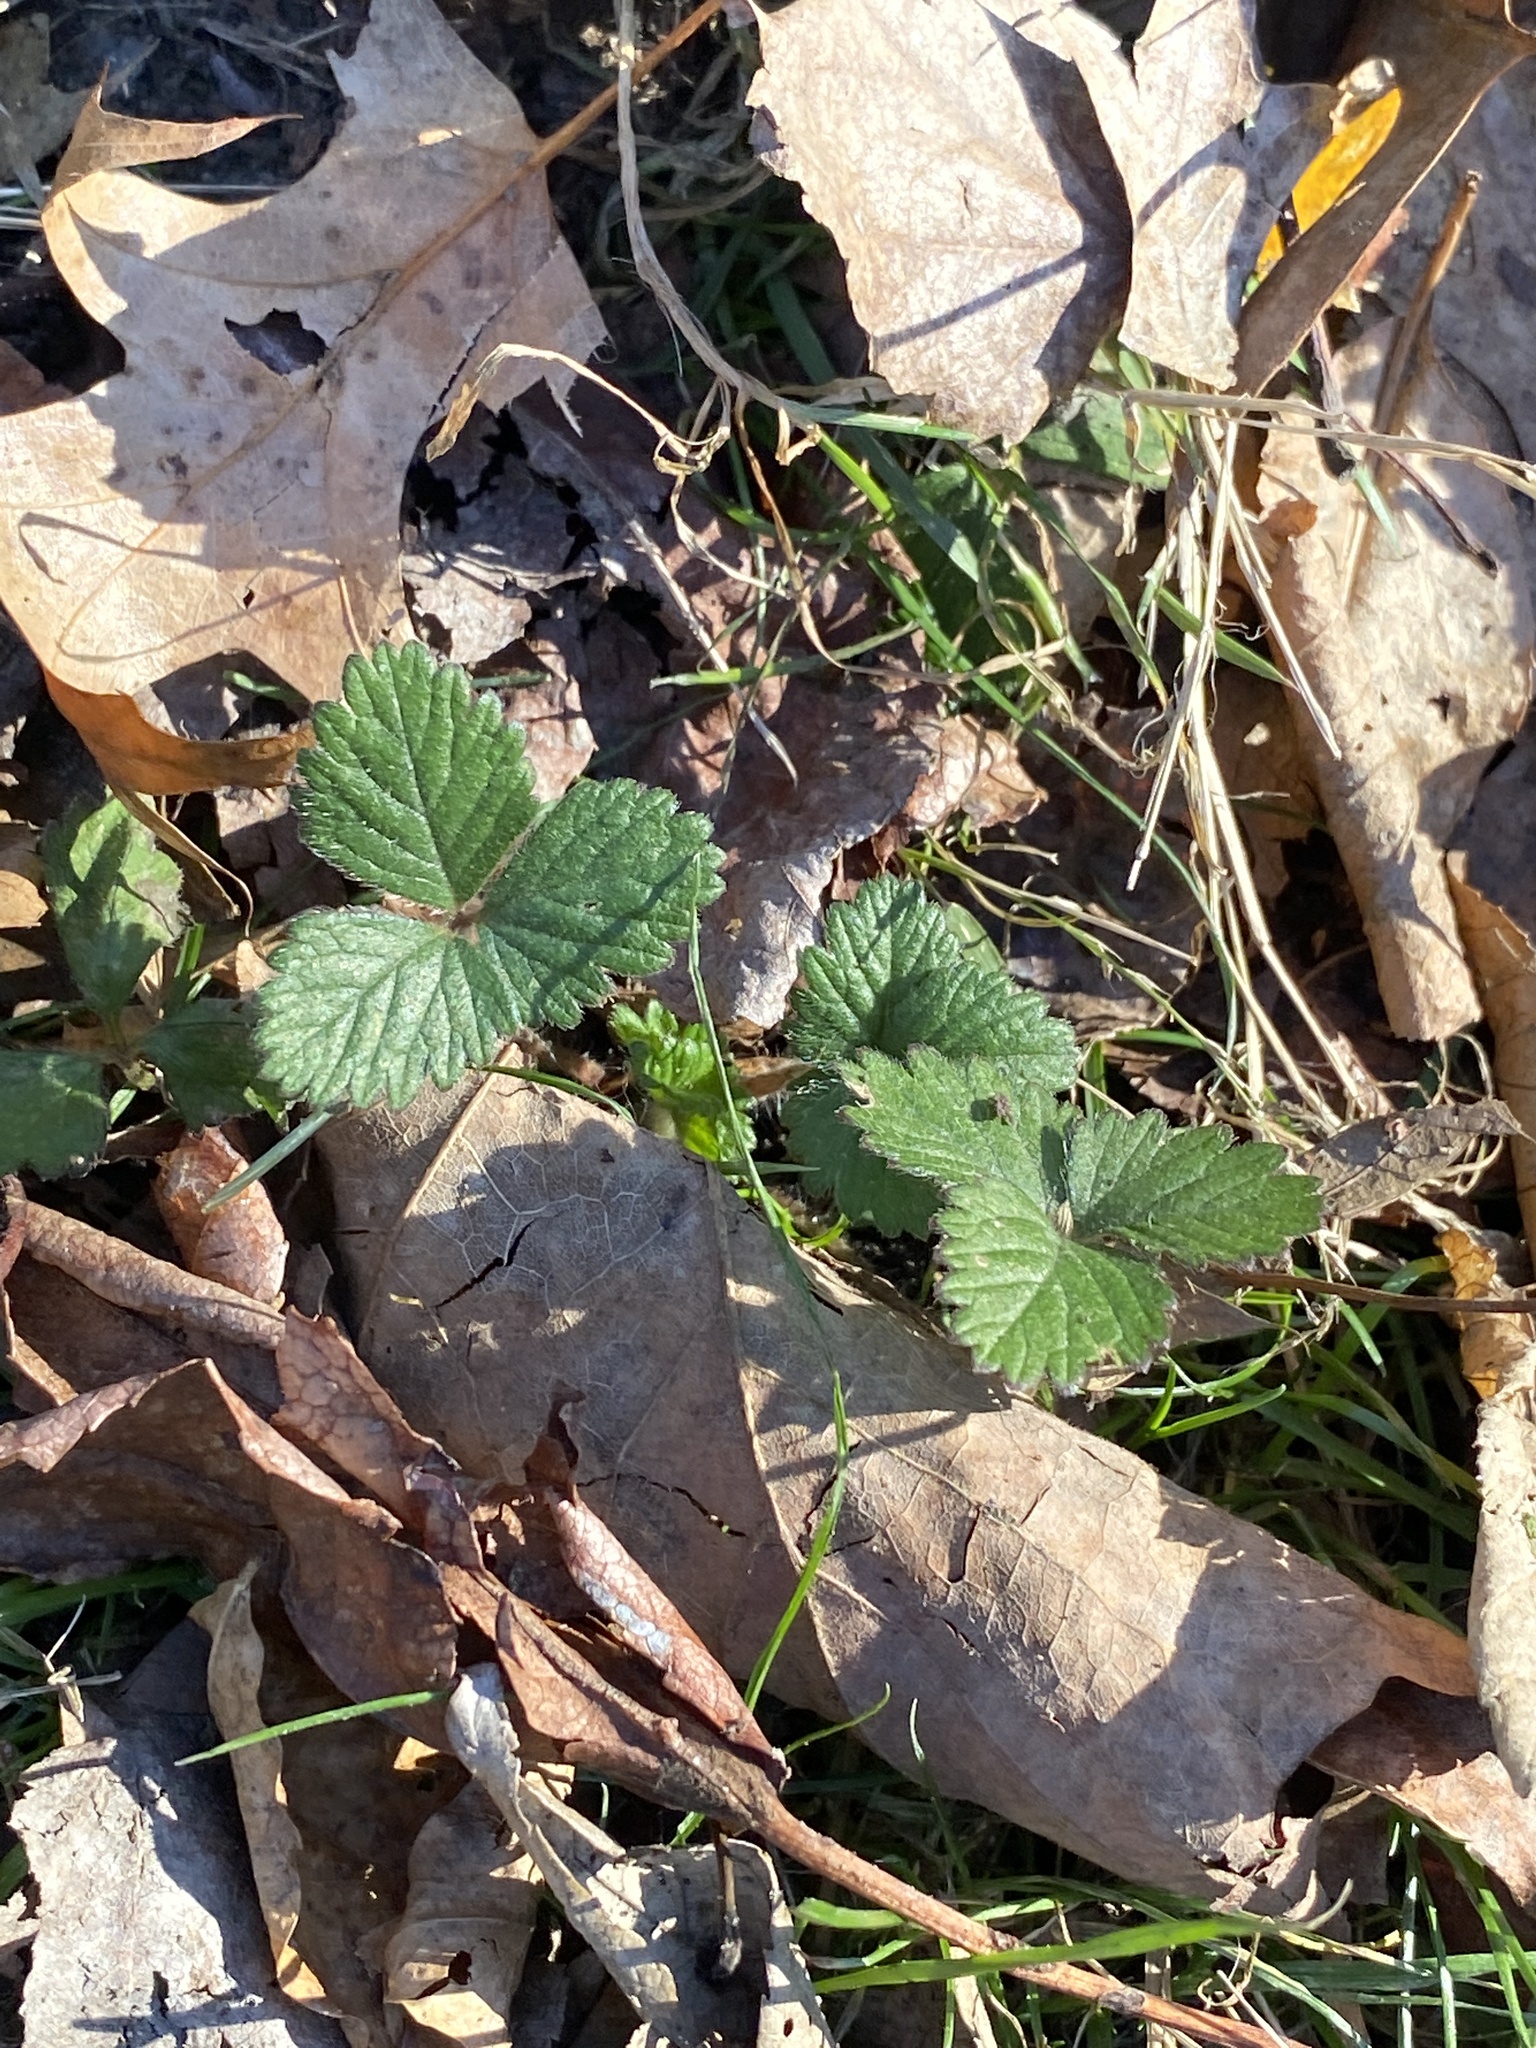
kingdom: Plantae
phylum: Tracheophyta
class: Magnoliopsida
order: Rosales
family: Rosaceae
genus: Potentilla
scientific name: Potentilla indica
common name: Yellow-flowered strawberry
